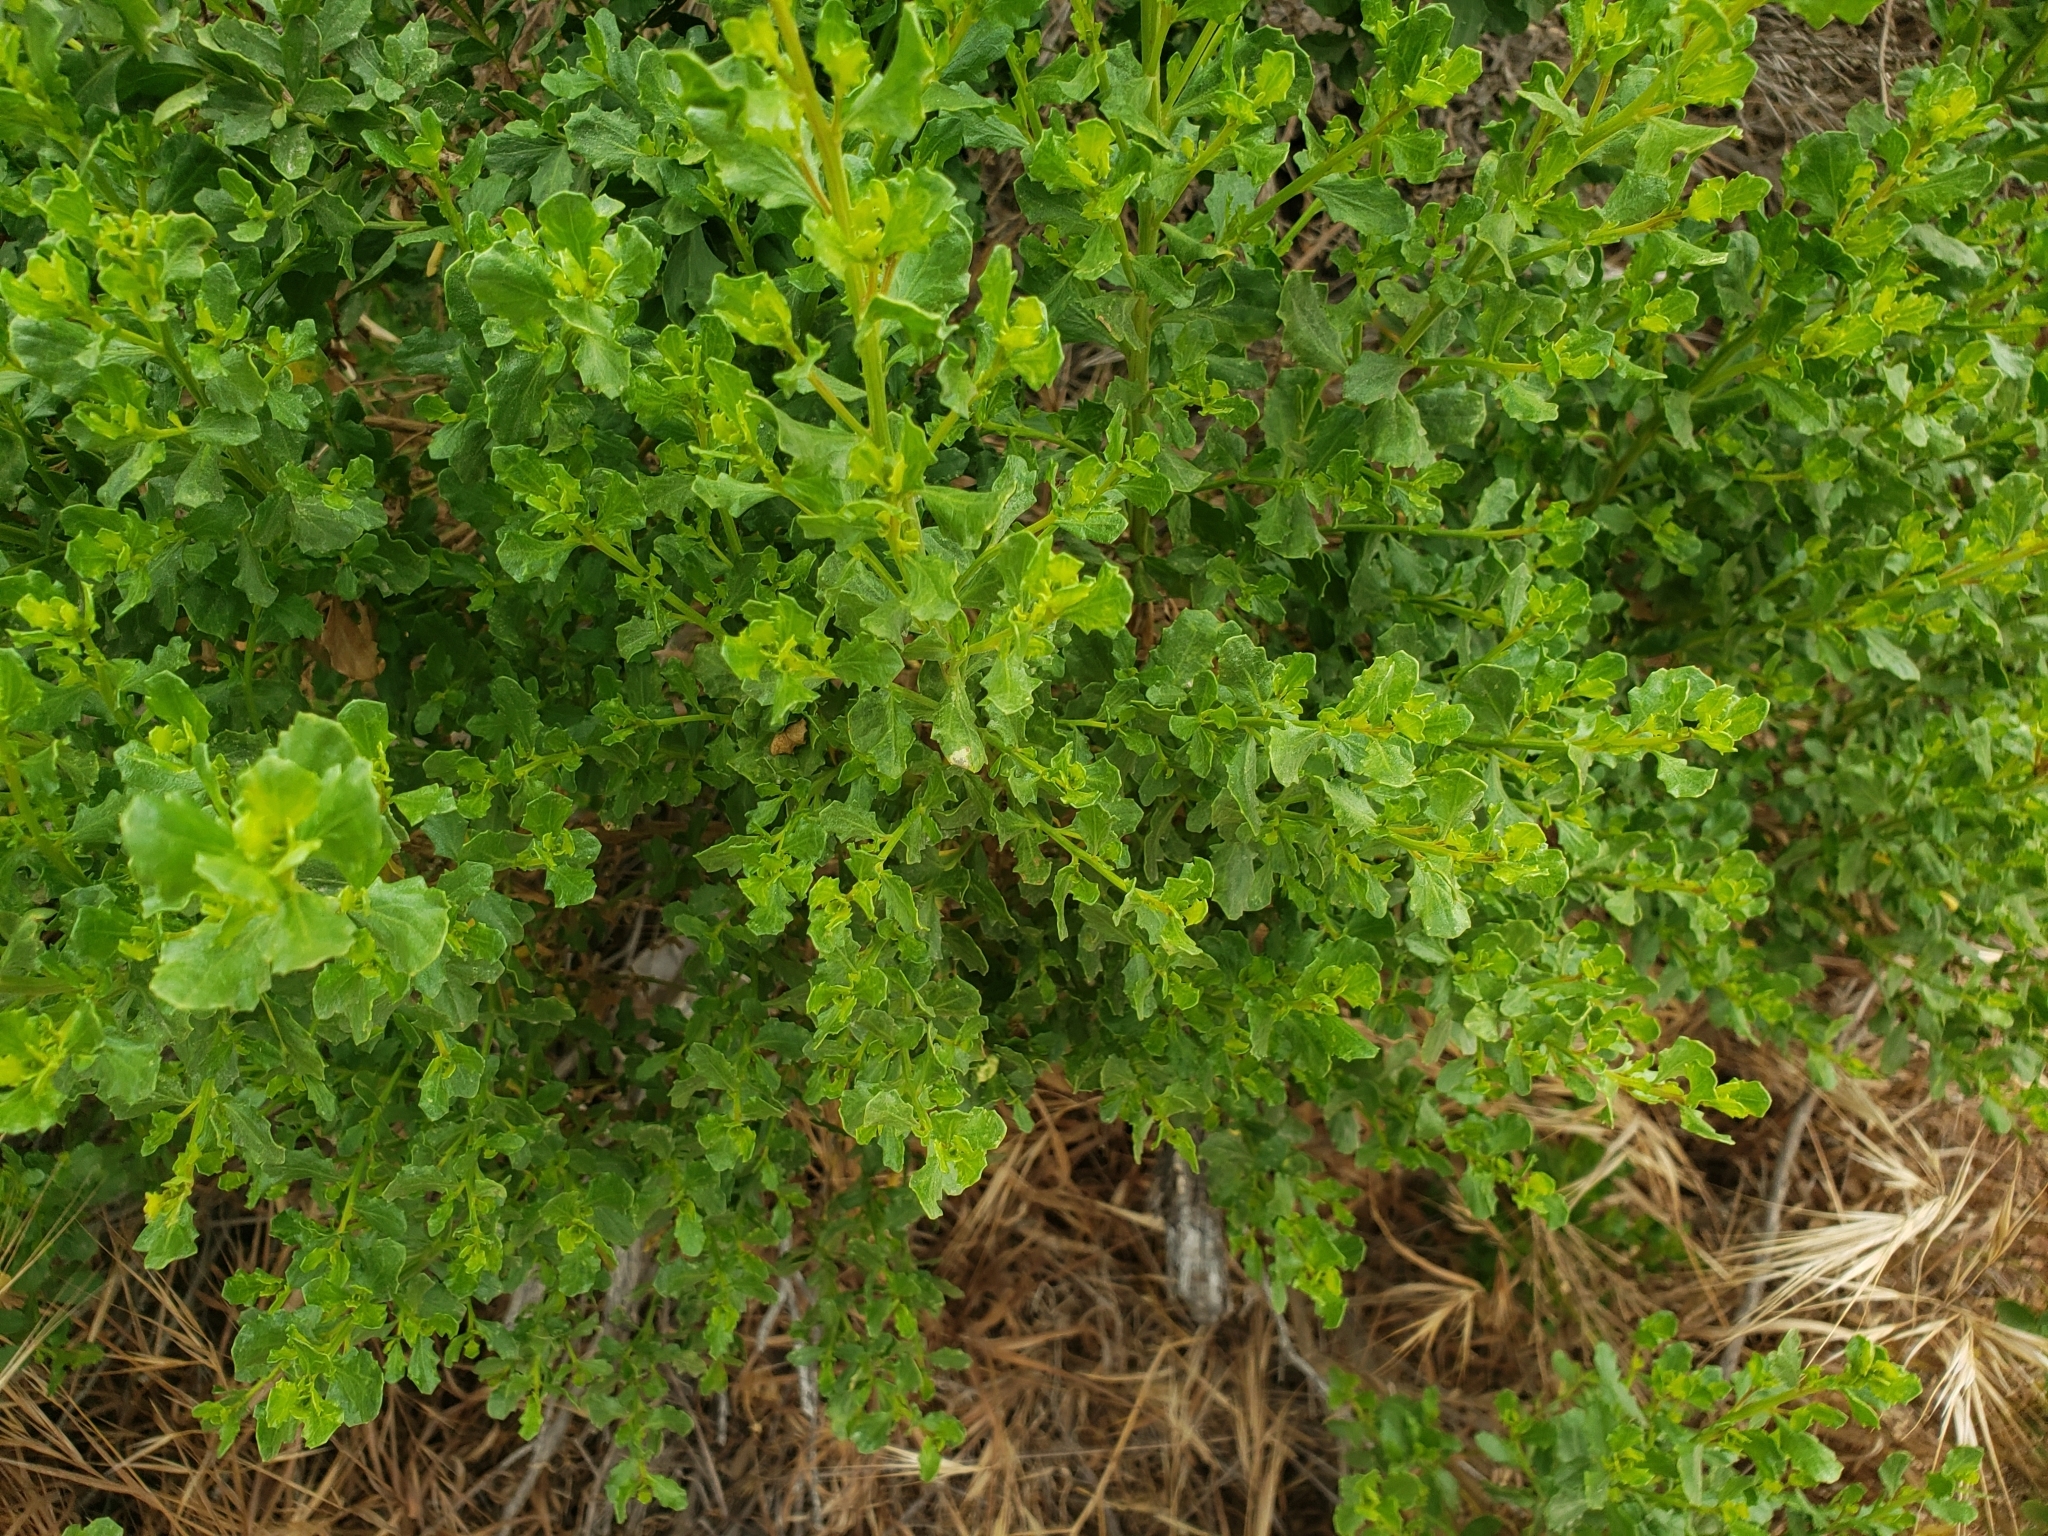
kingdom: Plantae
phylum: Tracheophyta
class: Magnoliopsida
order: Asterales
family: Asteraceae
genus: Baccharis
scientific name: Baccharis pilularis
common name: Coyotebrush
